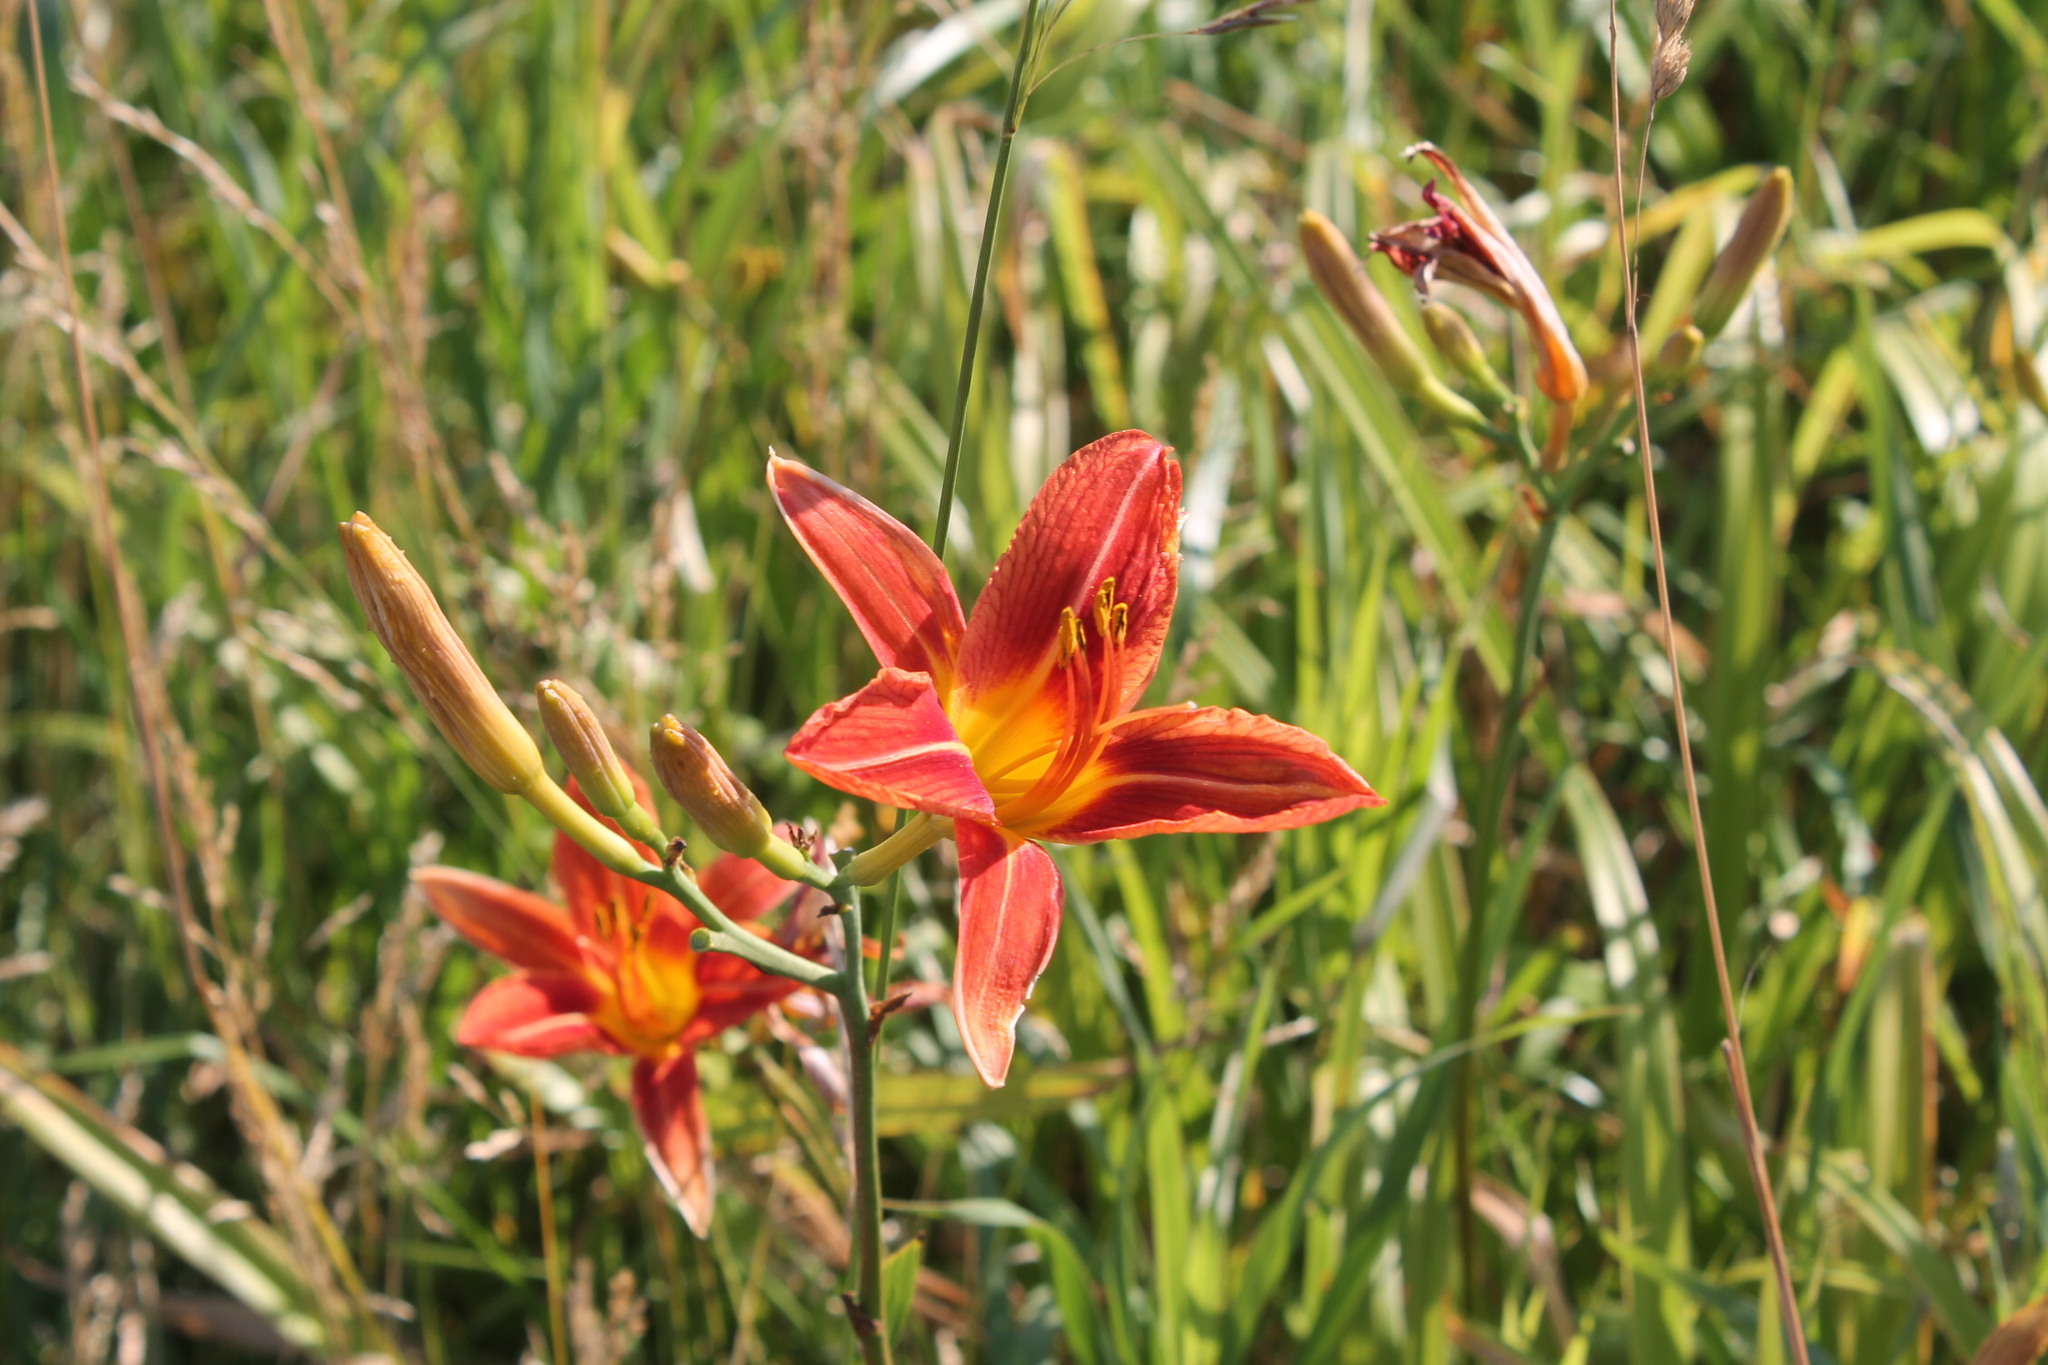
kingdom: Plantae
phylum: Tracheophyta
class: Liliopsida
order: Asparagales
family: Asphodelaceae
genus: Hemerocallis
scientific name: Hemerocallis fulva
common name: Orange day-lily
